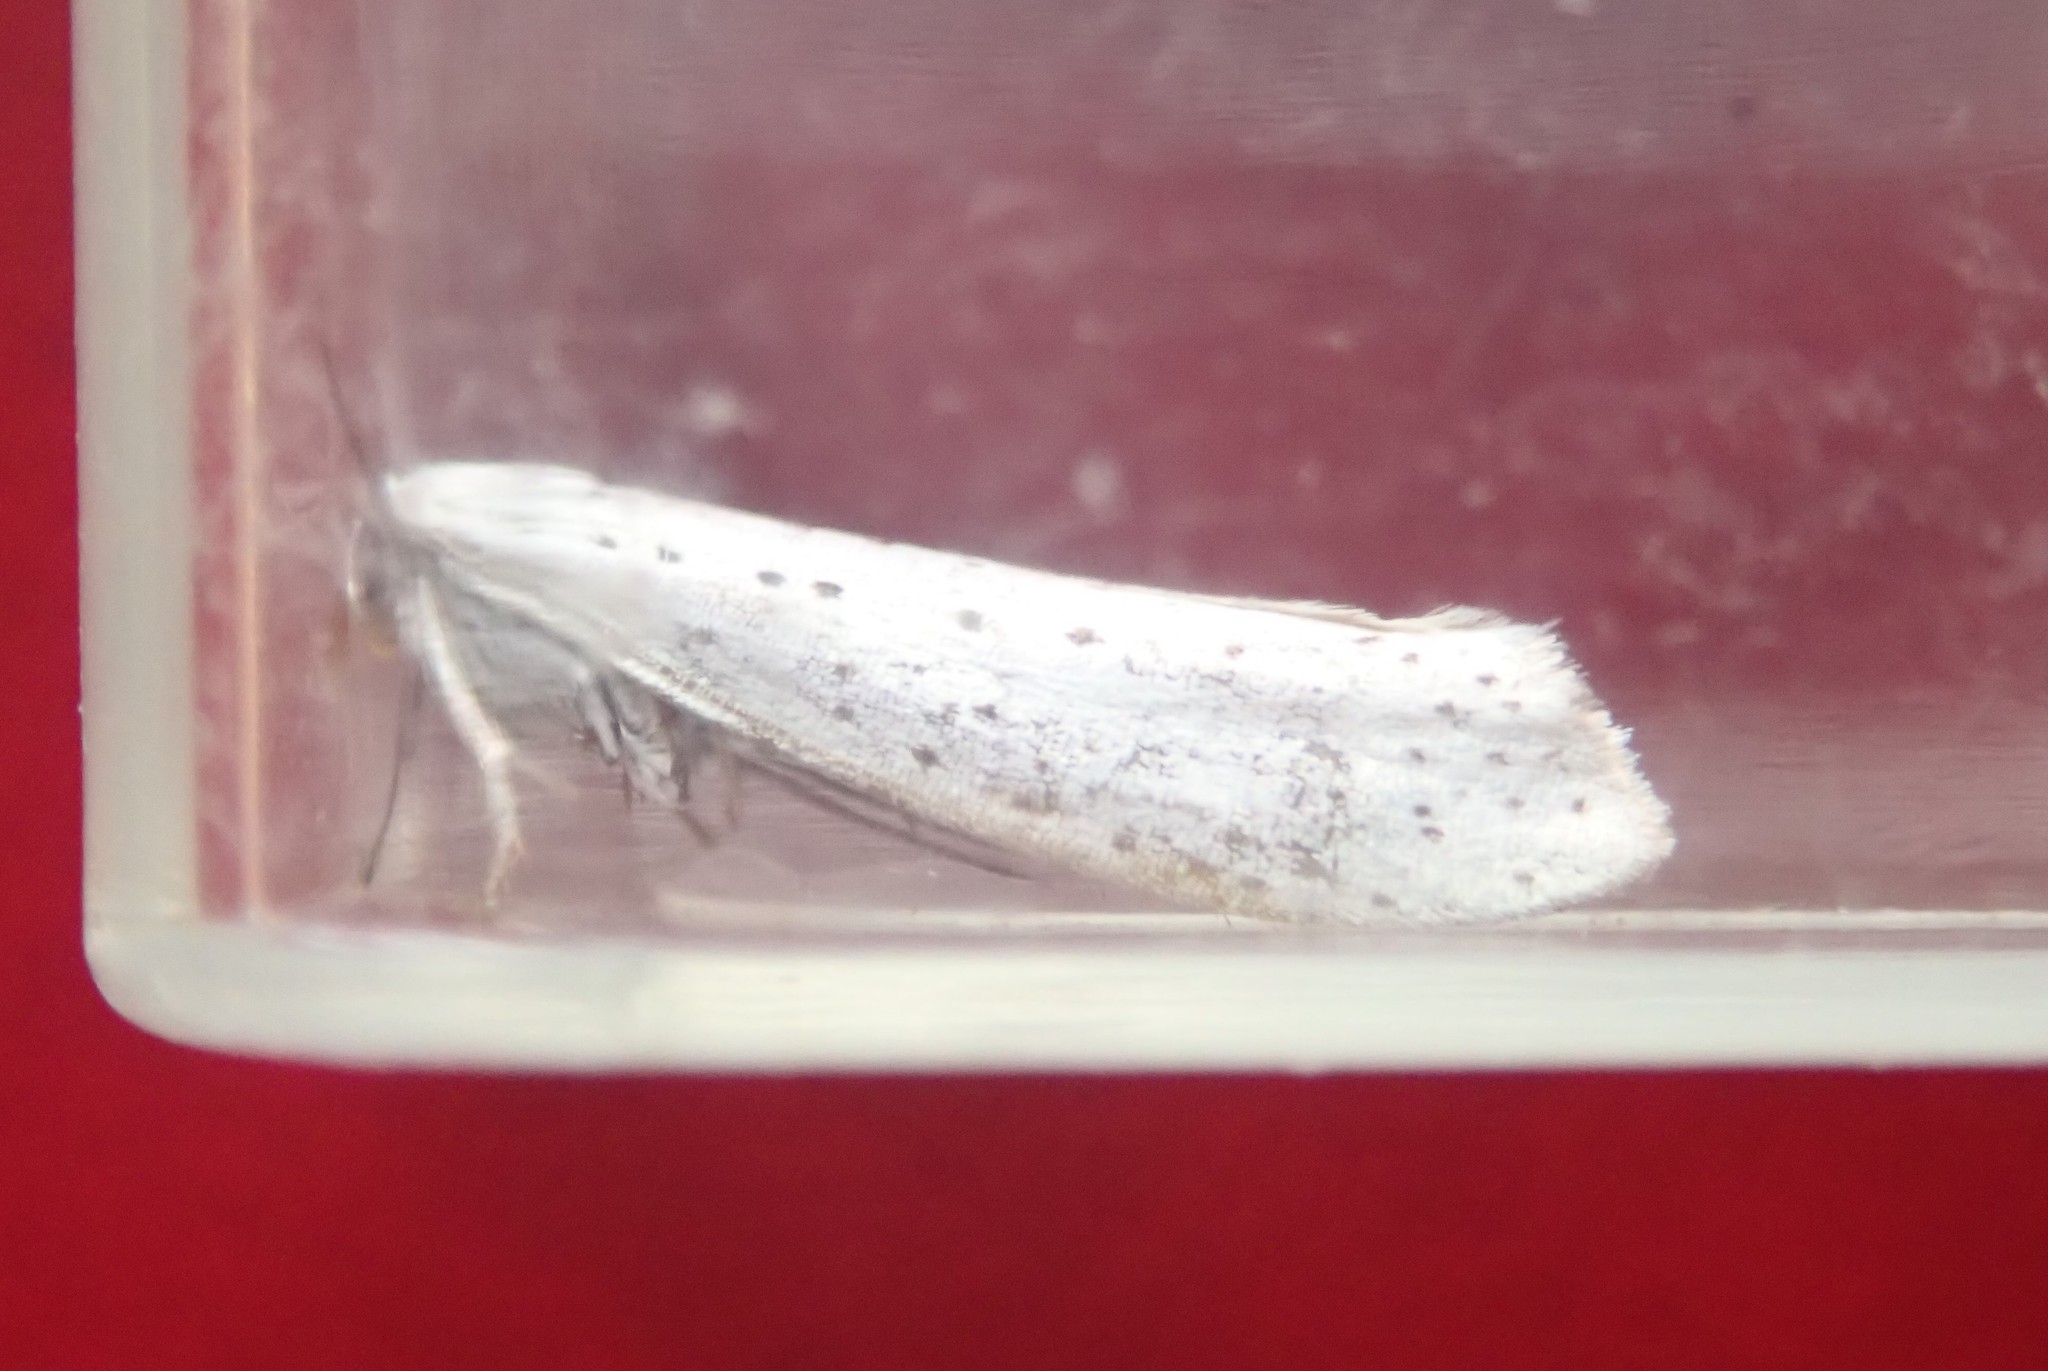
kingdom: Animalia
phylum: Arthropoda
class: Insecta
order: Lepidoptera
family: Yponomeutidae
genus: Yponomeuta
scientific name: Yponomeuta evonymella
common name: Bird-cherry ermine
